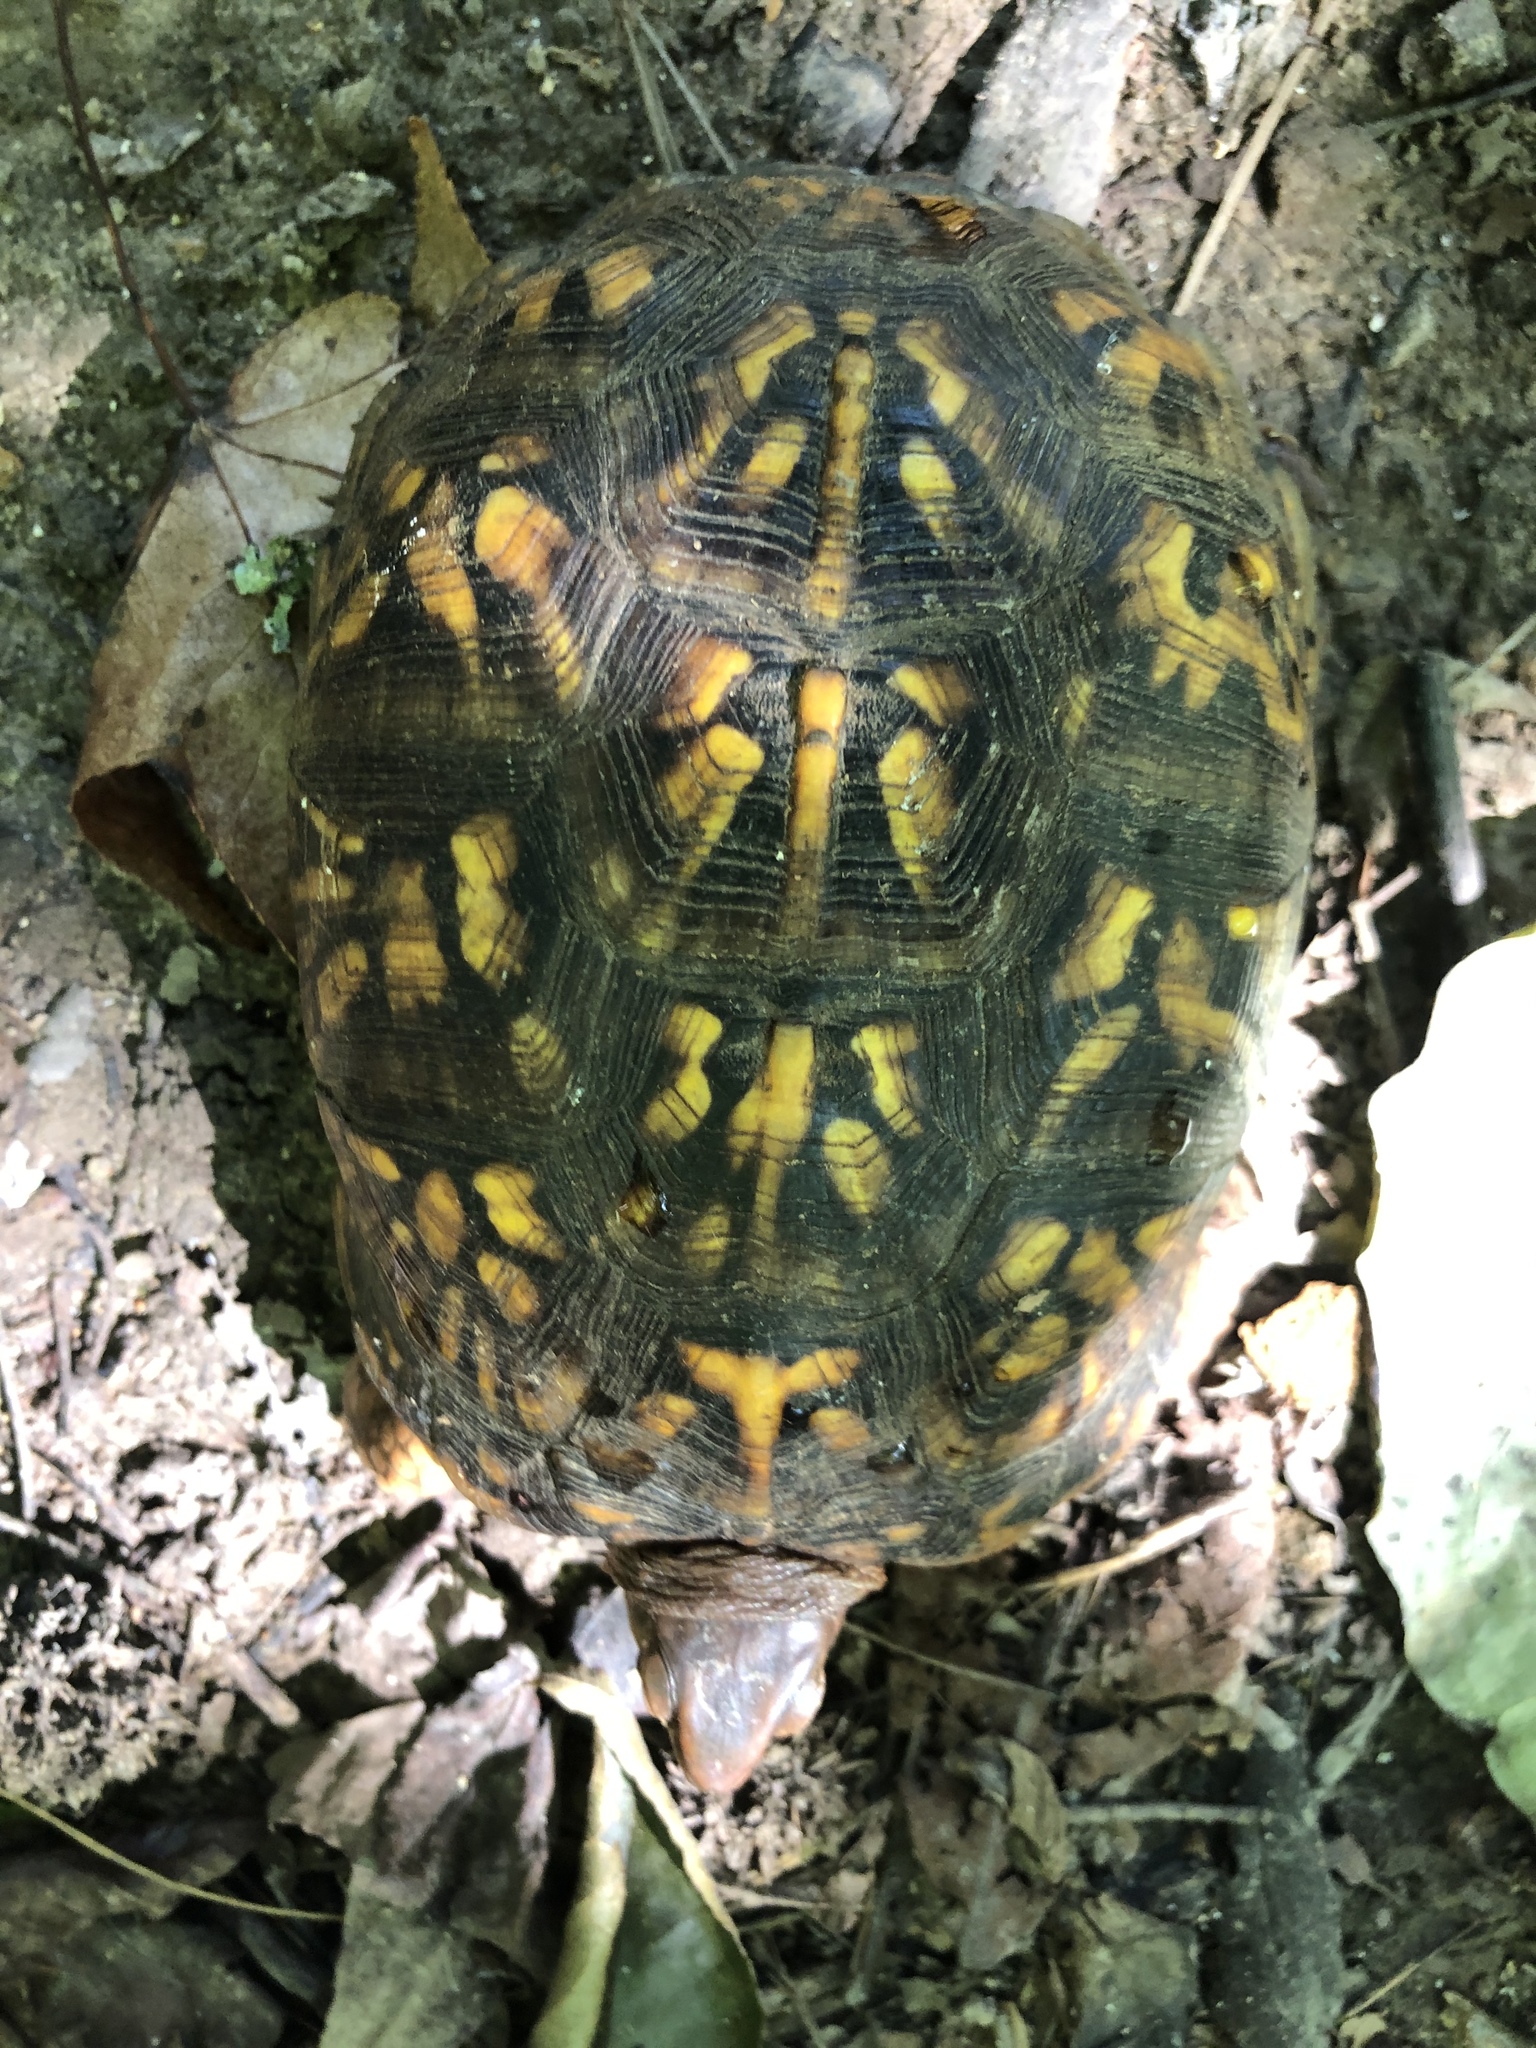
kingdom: Animalia
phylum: Chordata
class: Testudines
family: Emydidae
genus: Terrapene
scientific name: Terrapene carolina
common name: Common box turtle
